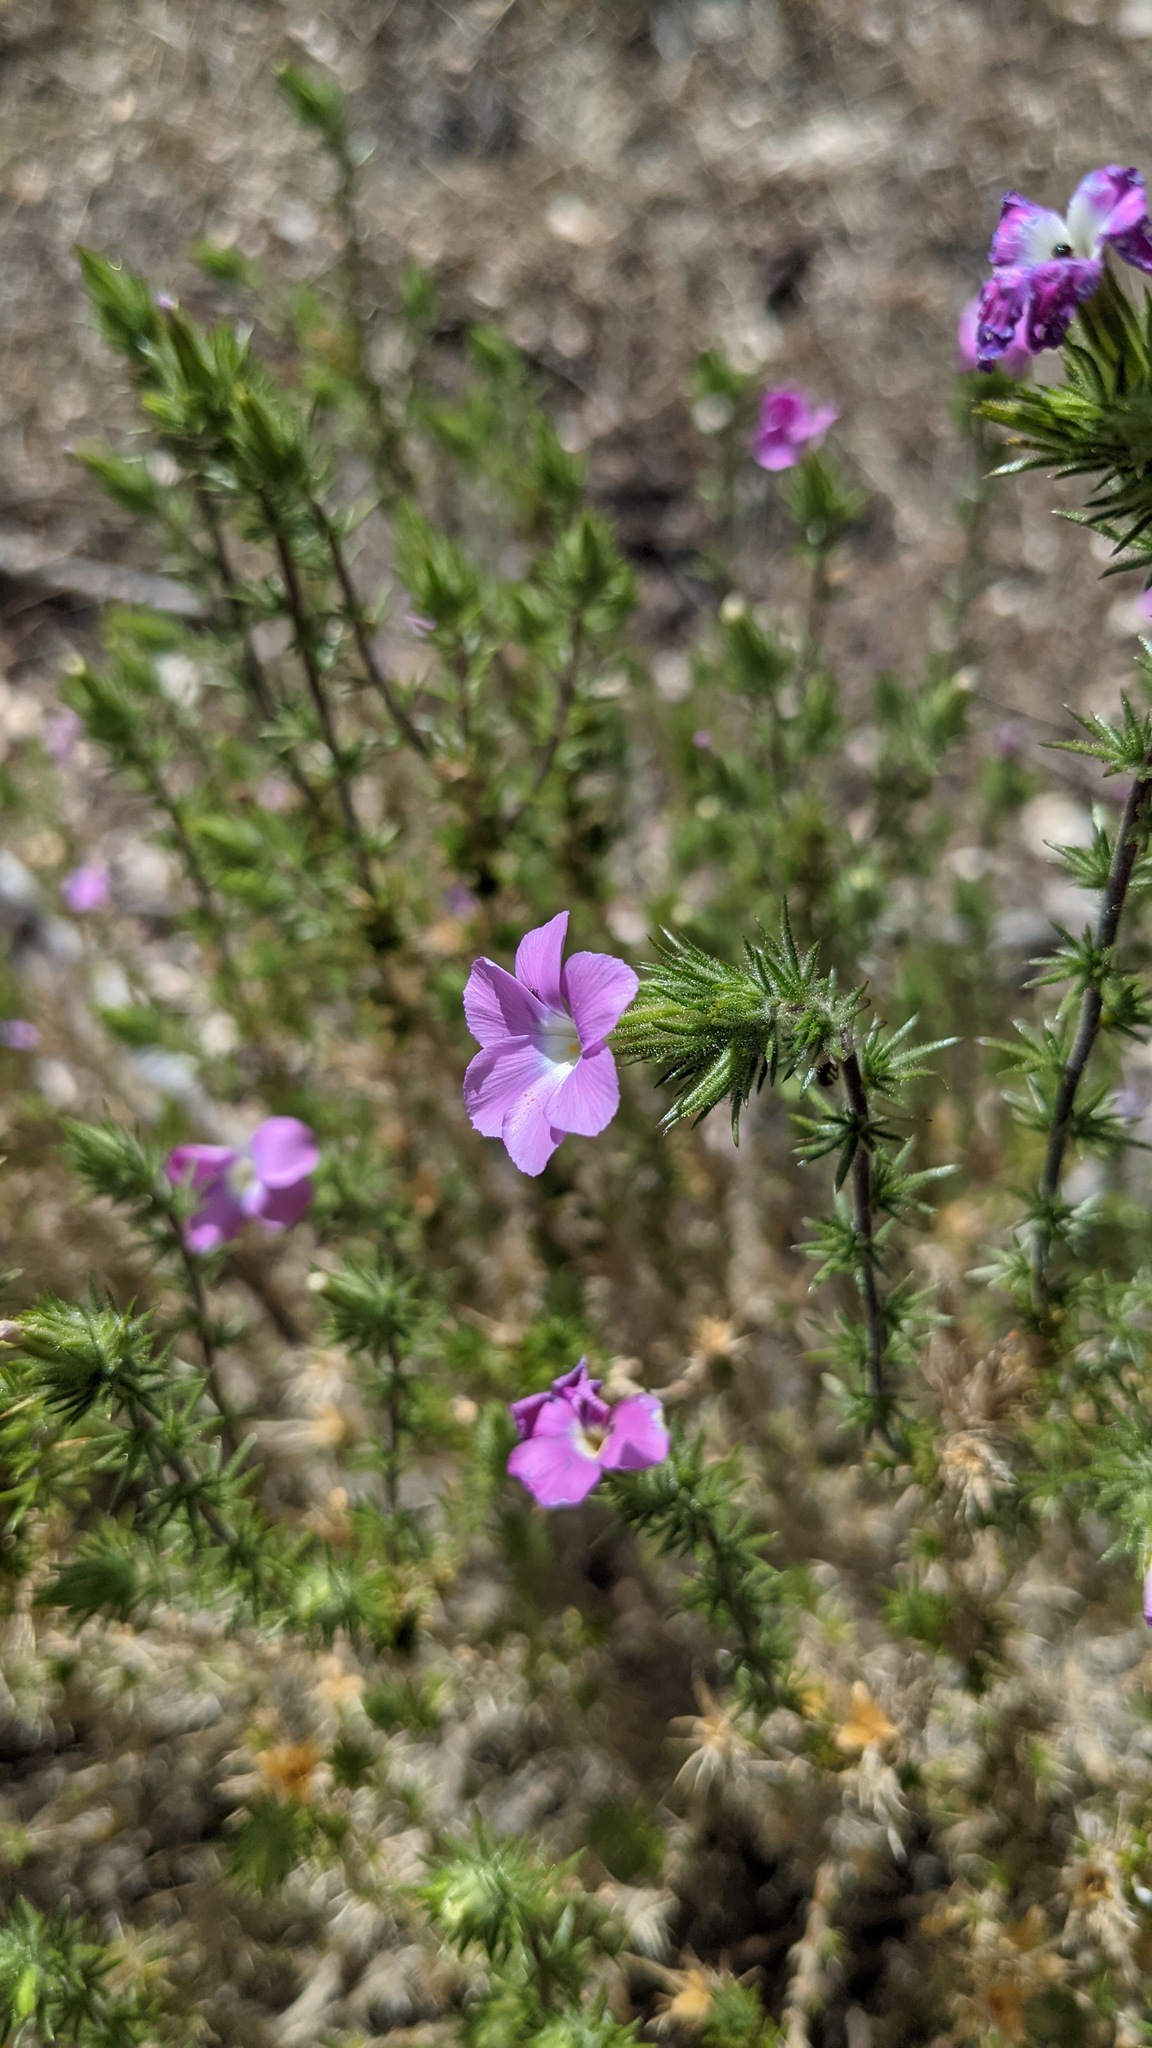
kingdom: Plantae
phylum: Tracheophyta
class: Magnoliopsida
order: Ericales
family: Polemoniaceae
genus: Linanthus
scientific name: Linanthus californicus
